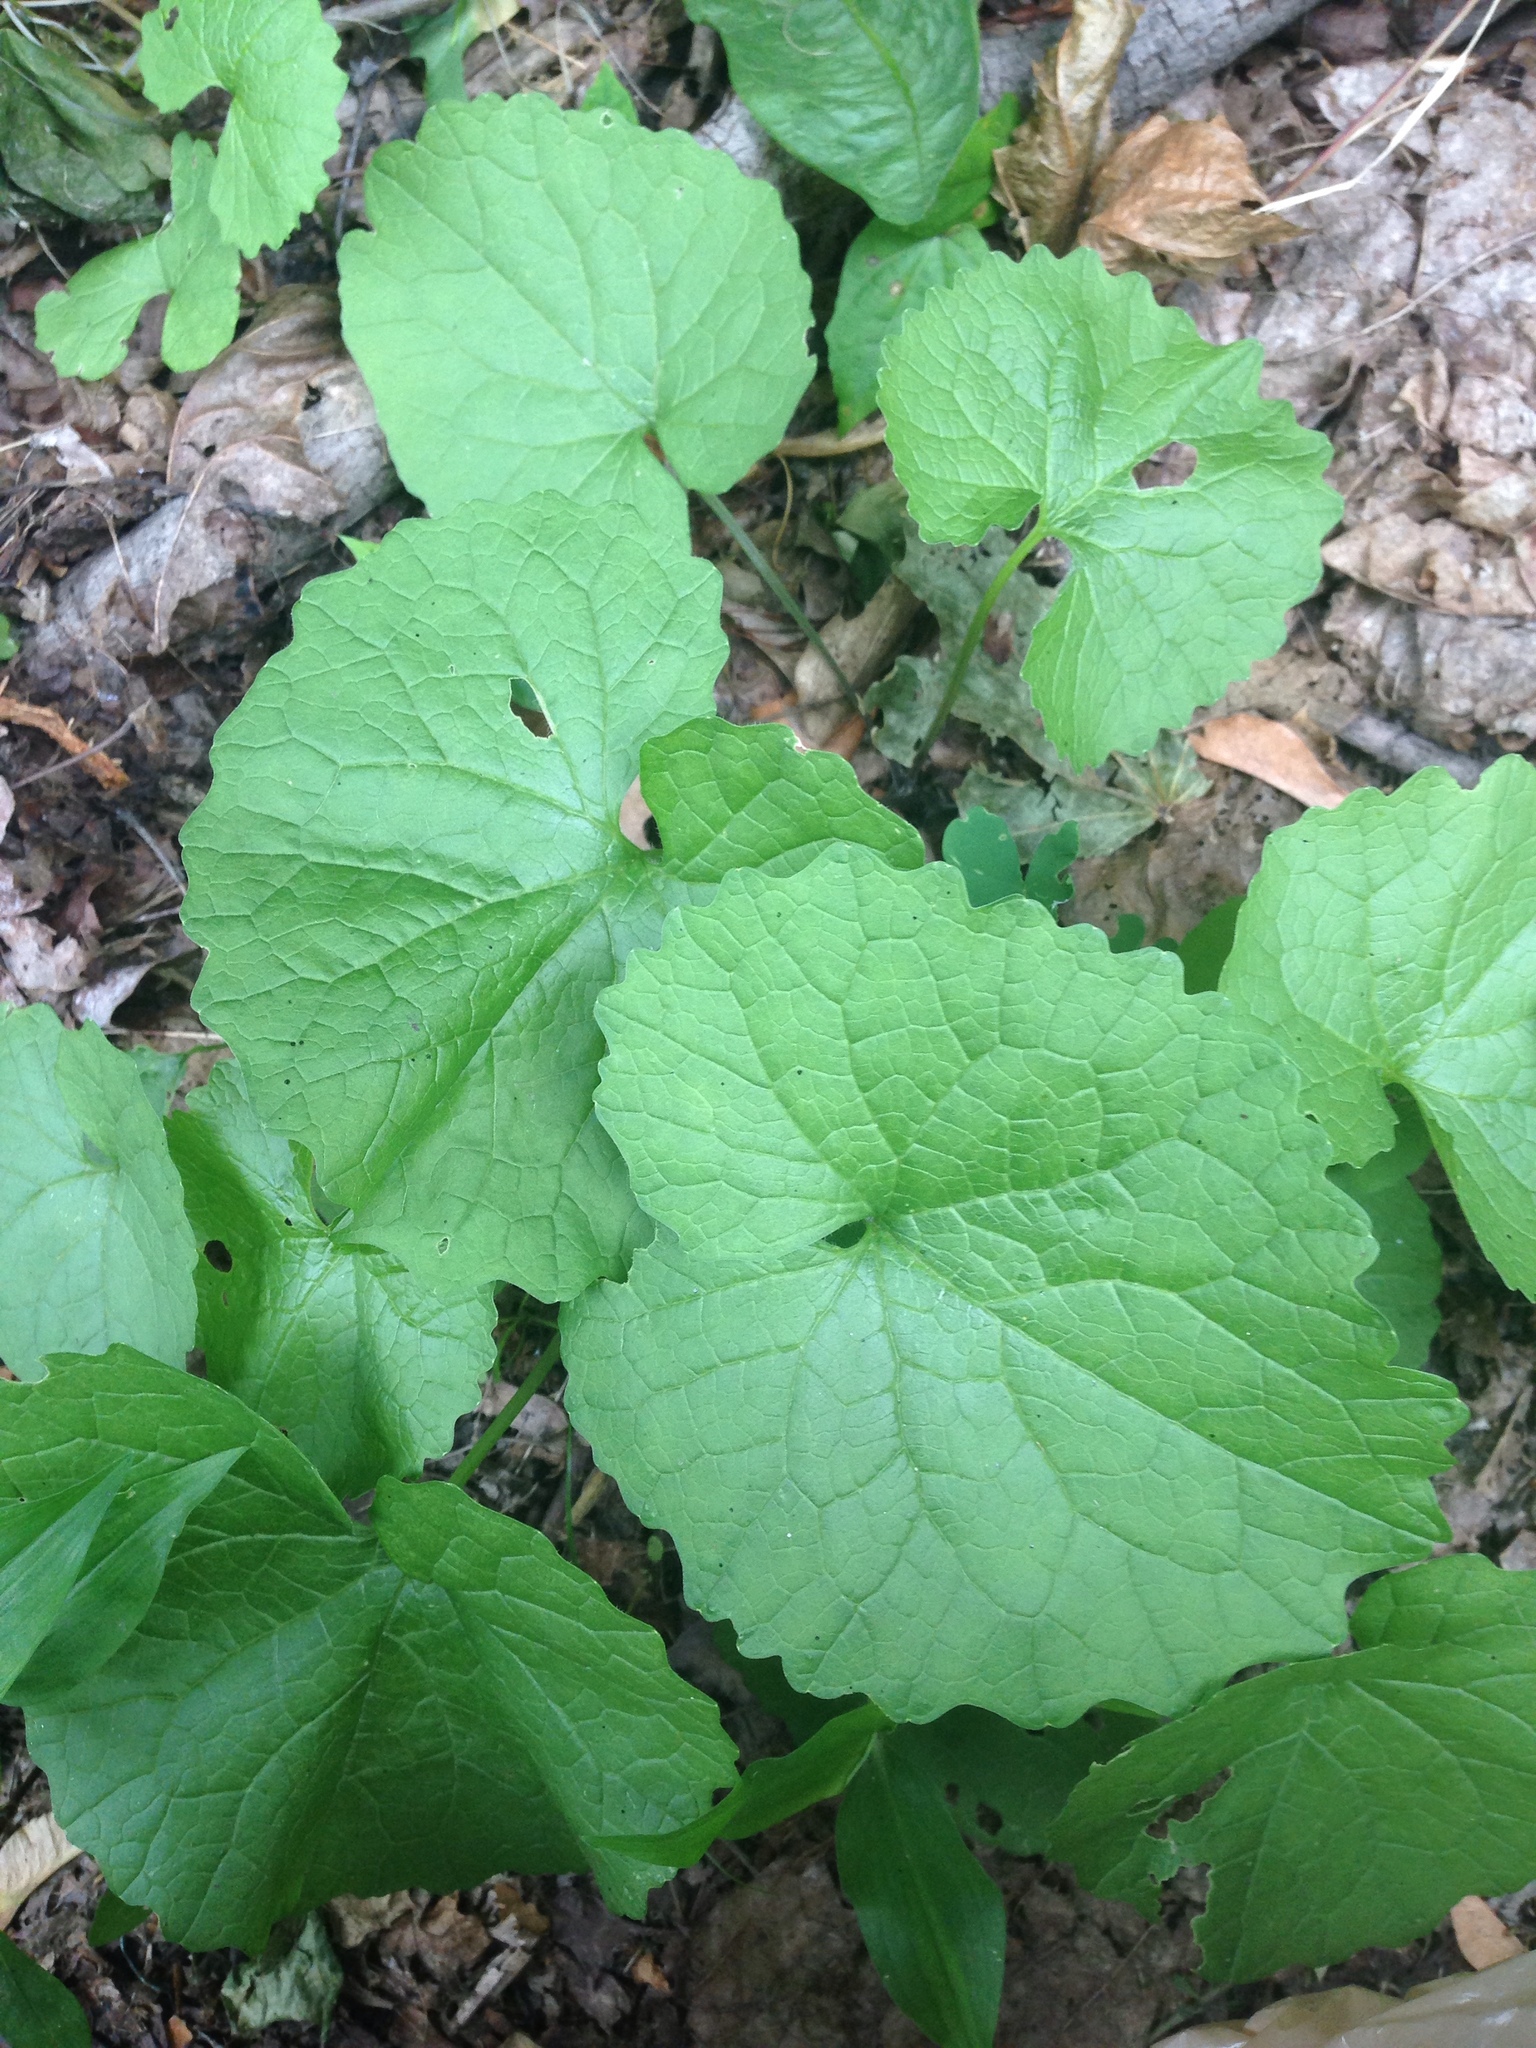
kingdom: Plantae
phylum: Tracheophyta
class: Magnoliopsida
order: Brassicales
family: Brassicaceae
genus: Alliaria
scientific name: Alliaria petiolata
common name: Garlic mustard
